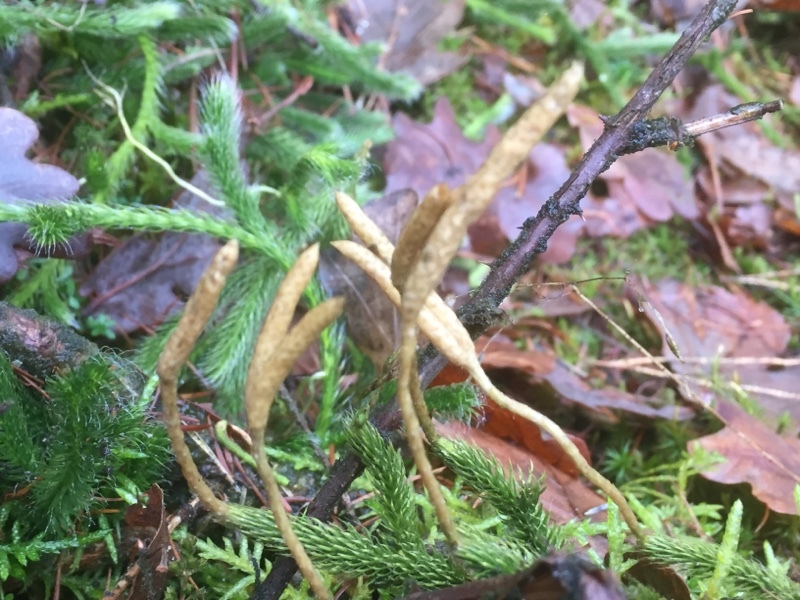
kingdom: Plantae
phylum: Tracheophyta
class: Lycopodiopsida
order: Lycopodiales
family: Lycopodiaceae
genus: Lycopodium
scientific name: Lycopodium clavatum
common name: Stag's-horn clubmoss
